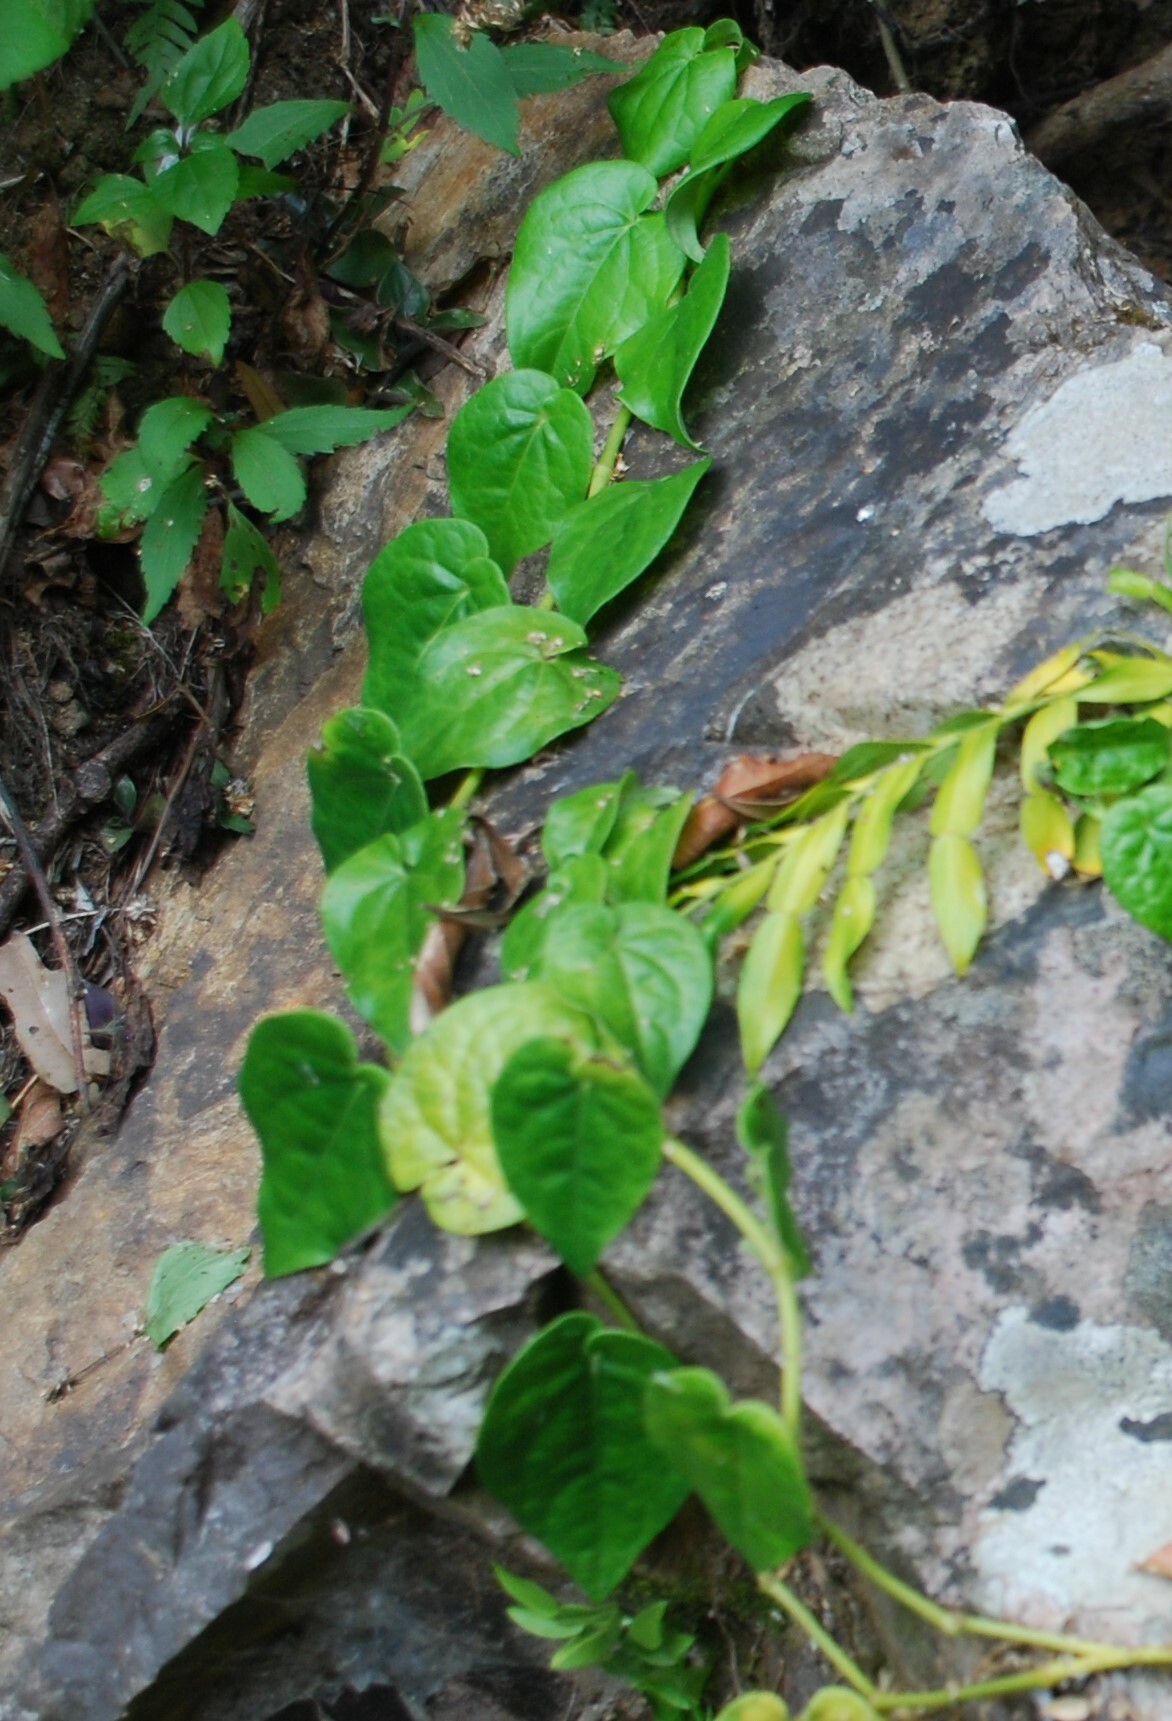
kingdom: Plantae
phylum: Tracheophyta
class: Magnoliopsida
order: Piperales
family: Piperaceae
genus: Piper
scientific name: Piper hederaceum
